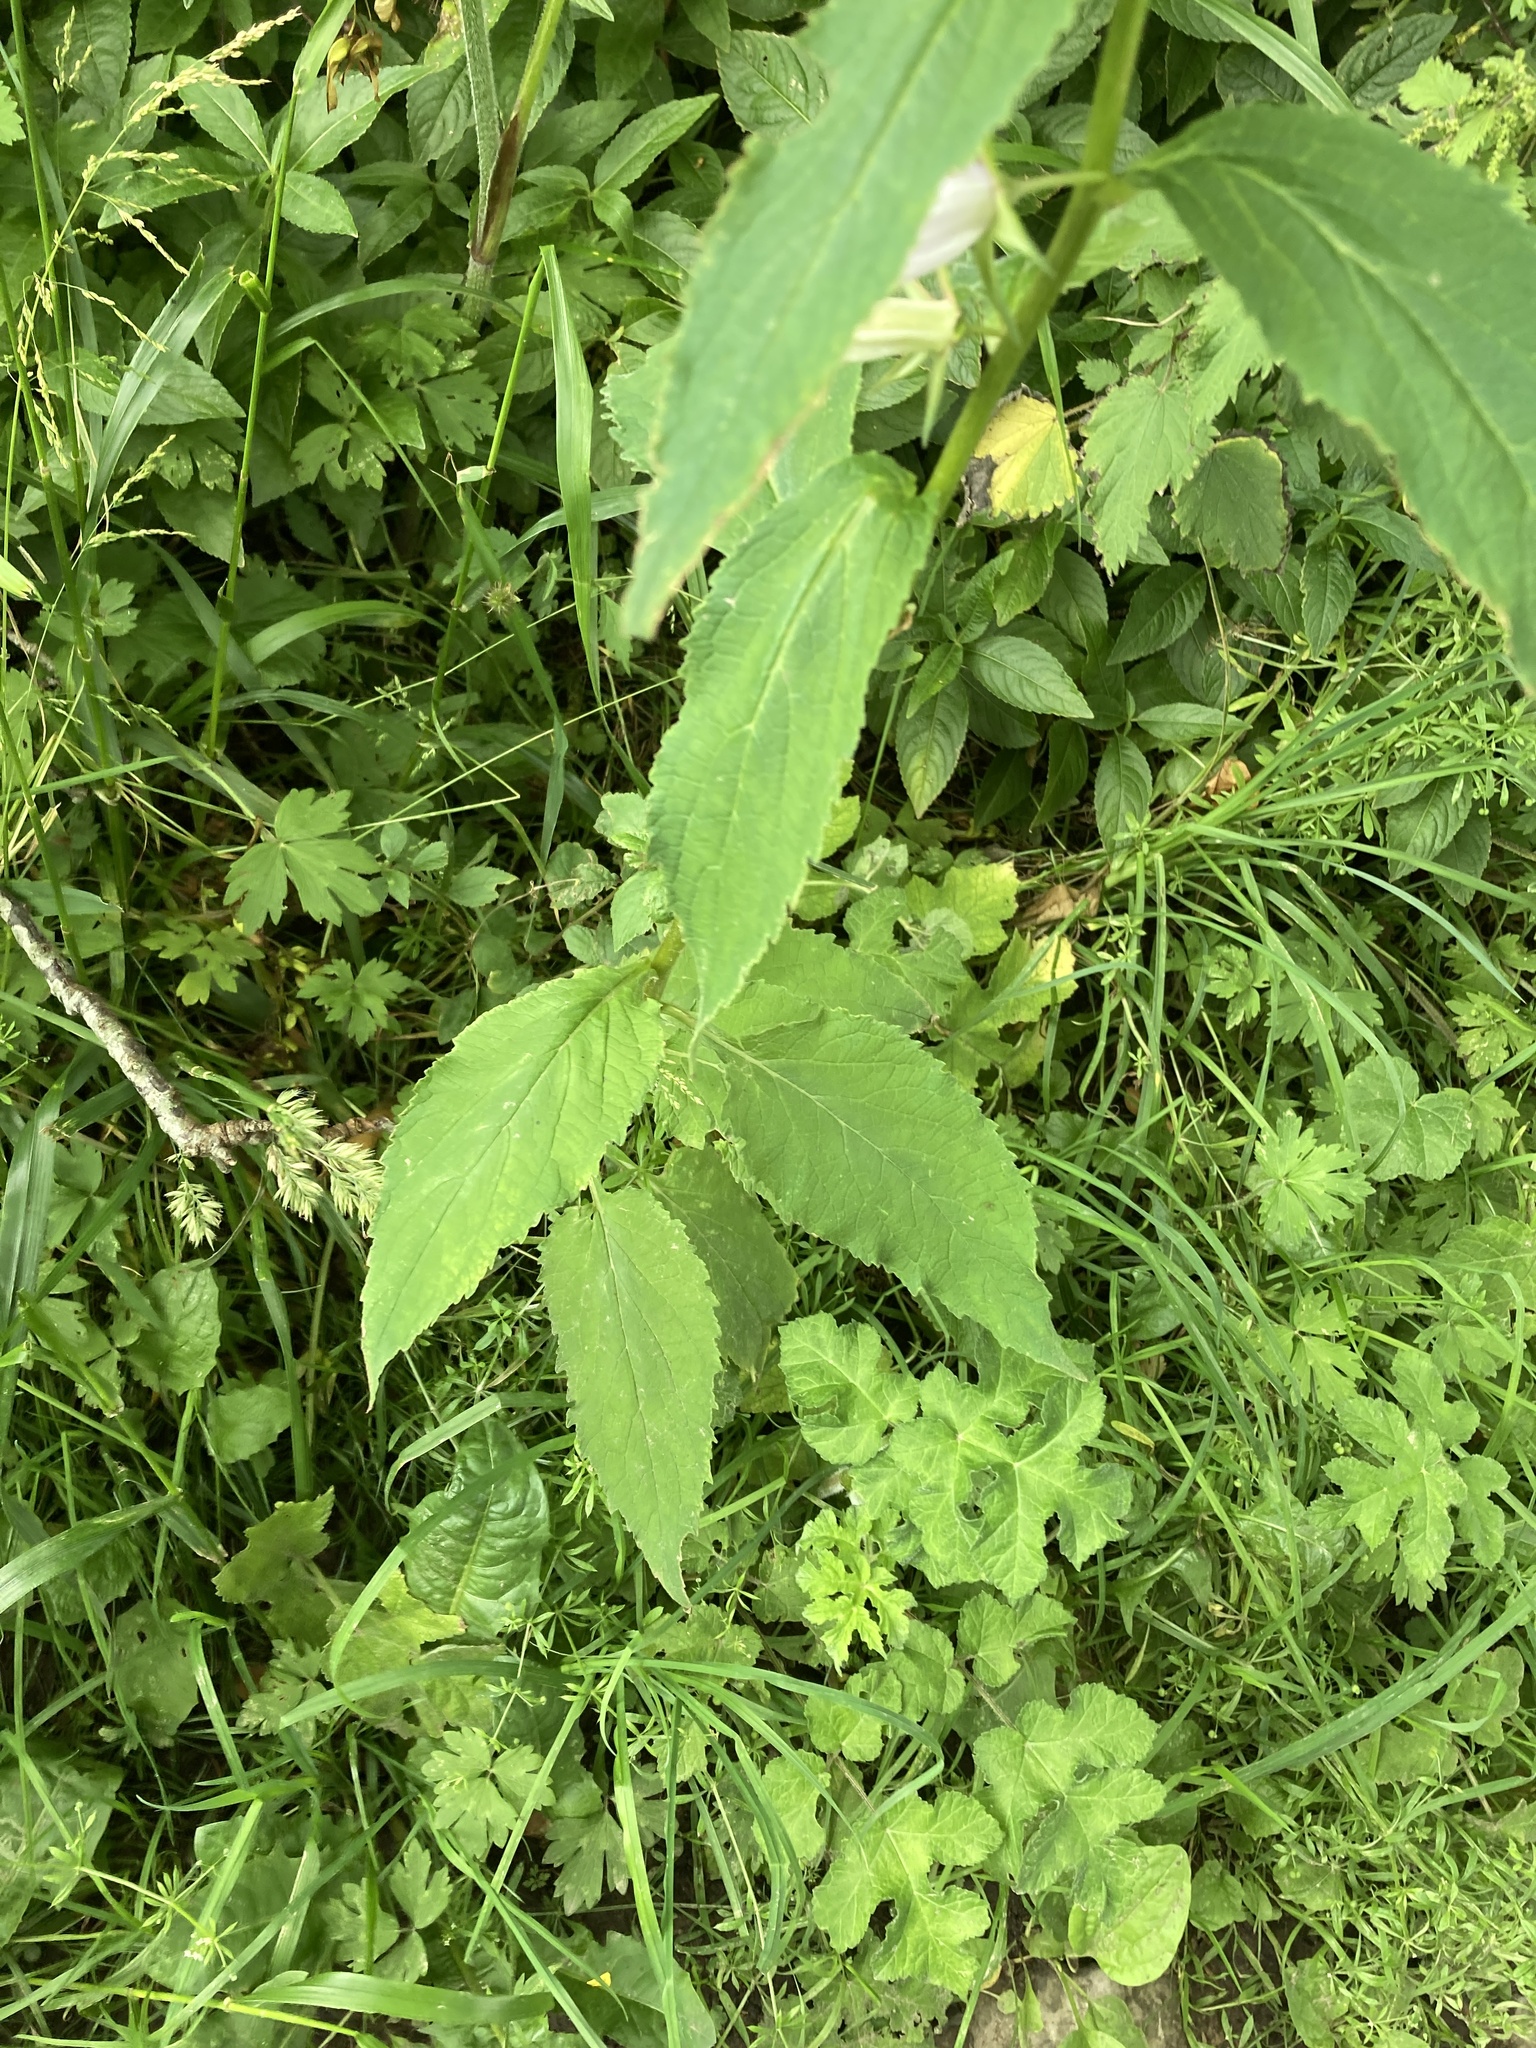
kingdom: Plantae
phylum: Tracheophyta
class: Magnoliopsida
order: Asterales
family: Campanulaceae
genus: Campanula
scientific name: Campanula latifolia
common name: Giant bellflower
